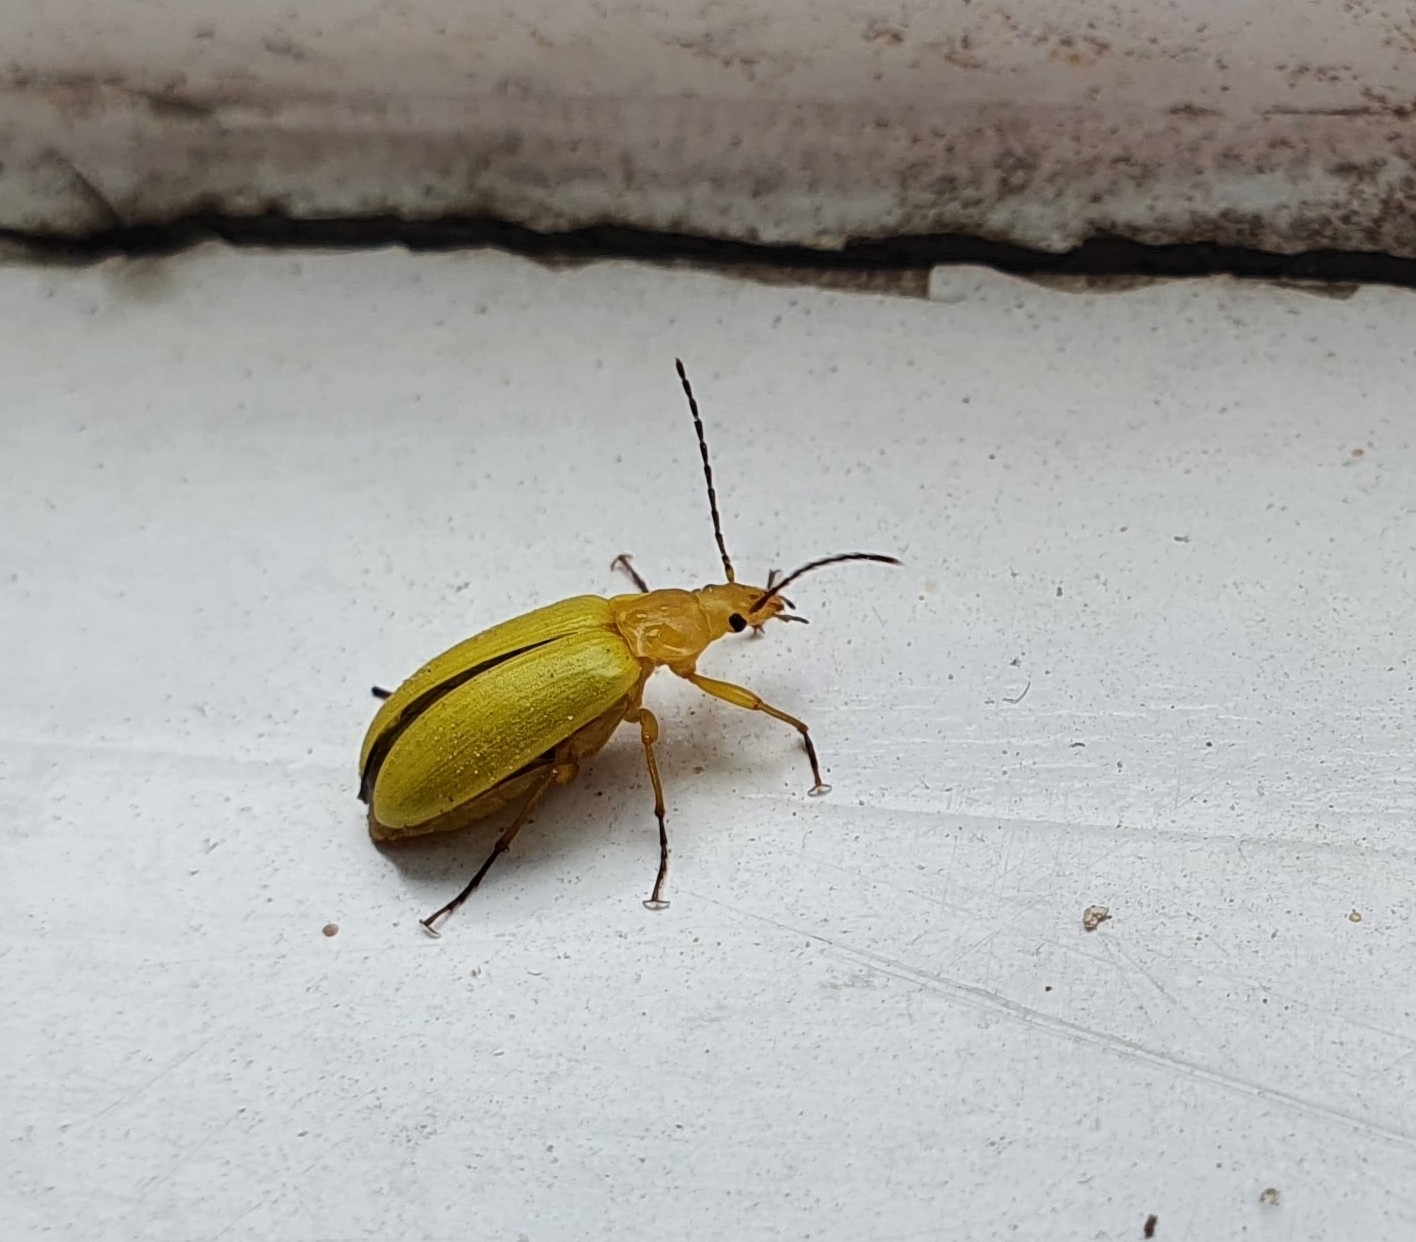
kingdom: Animalia
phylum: Arthropoda
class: Insecta
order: Coleoptera
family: Tenebrionidae
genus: Cteniopus
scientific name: Cteniopus sulphureus
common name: Sulphur beetle
